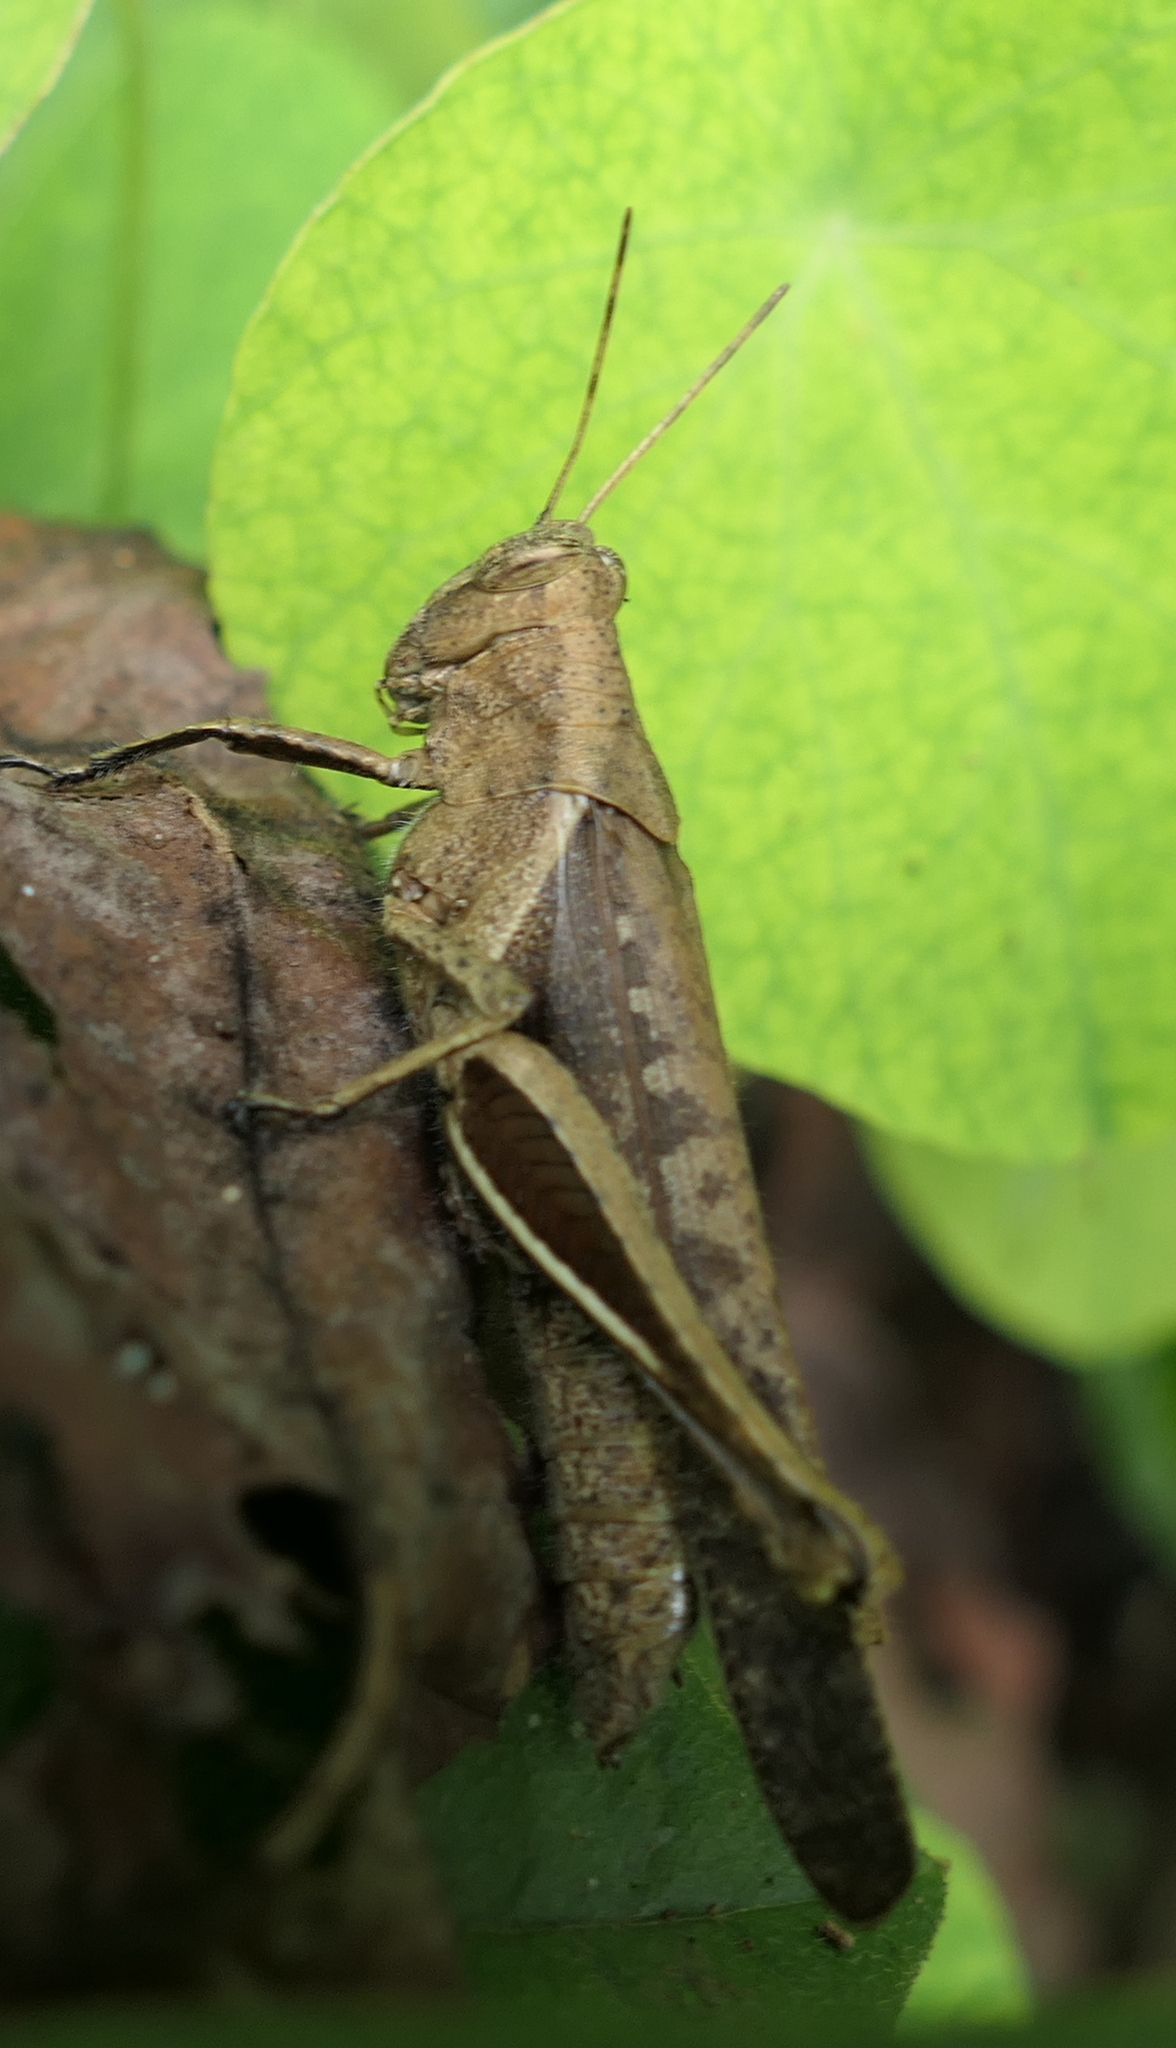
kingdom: Animalia
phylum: Arthropoda
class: Insecta
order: Orthoptera
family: Acrididae
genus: Abracris
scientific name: Abracris flavolineata
